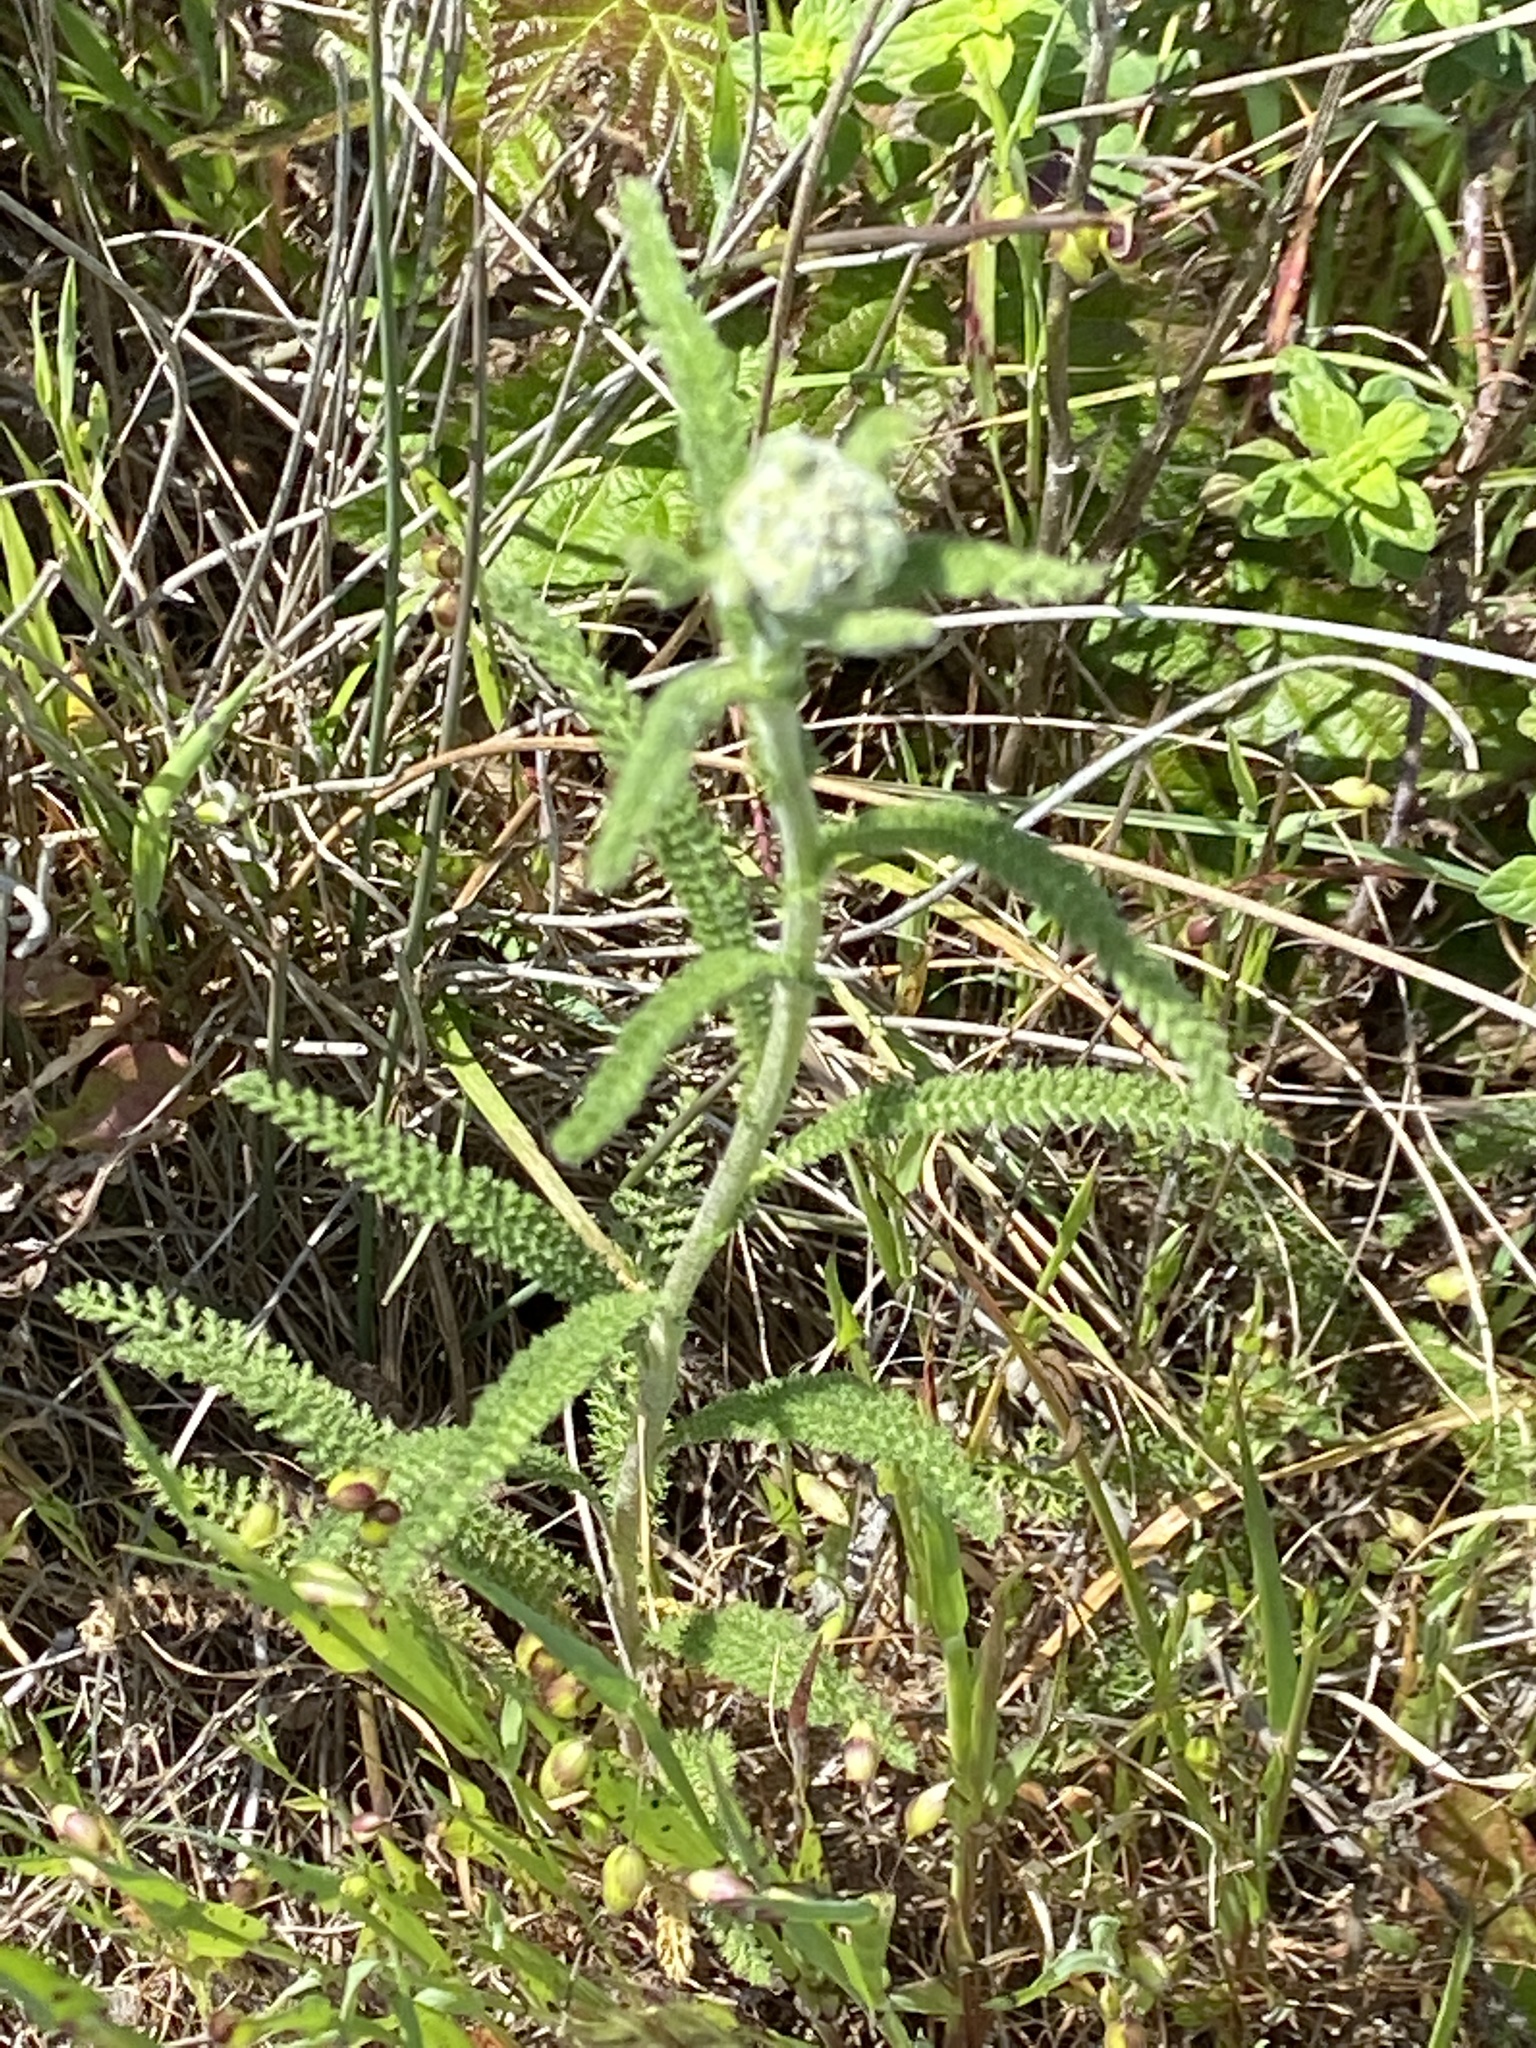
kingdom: Plantae
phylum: Tracheophyta
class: Magnoliopsida
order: Asterales
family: Asteraceae
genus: Achillea
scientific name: Achillea millefolium
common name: Yarrow
